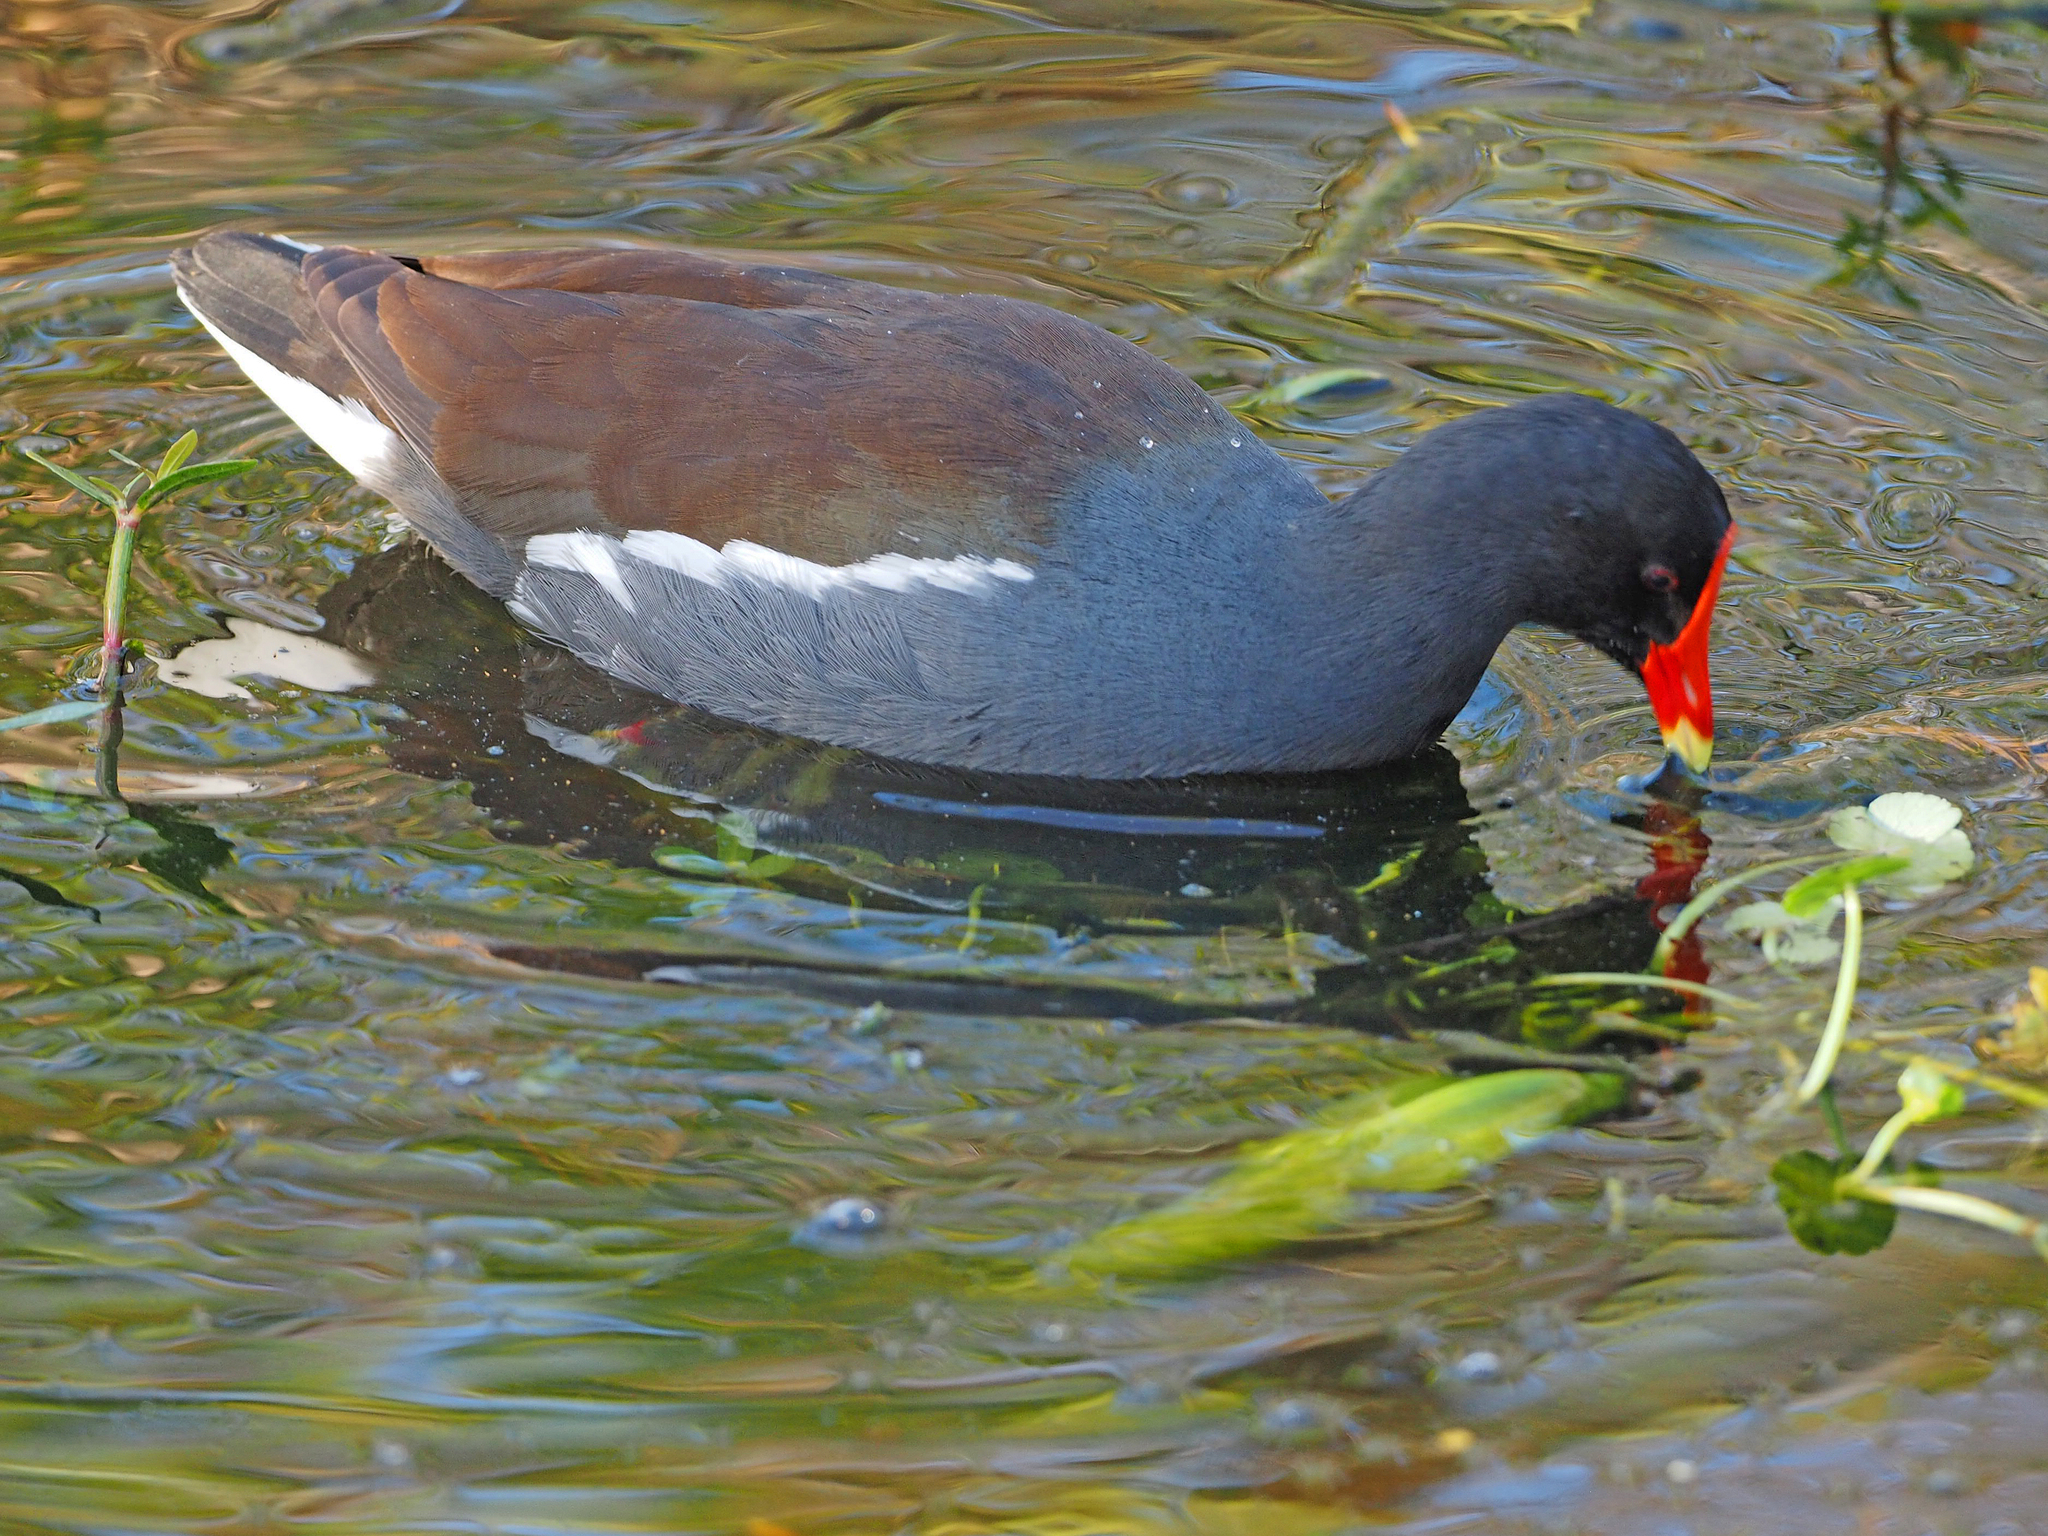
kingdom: Animalia
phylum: Chordata
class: Aves
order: Gruiformes
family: Rallidae
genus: Gallinula
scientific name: Gallinula chloropus
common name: Common moorhen
